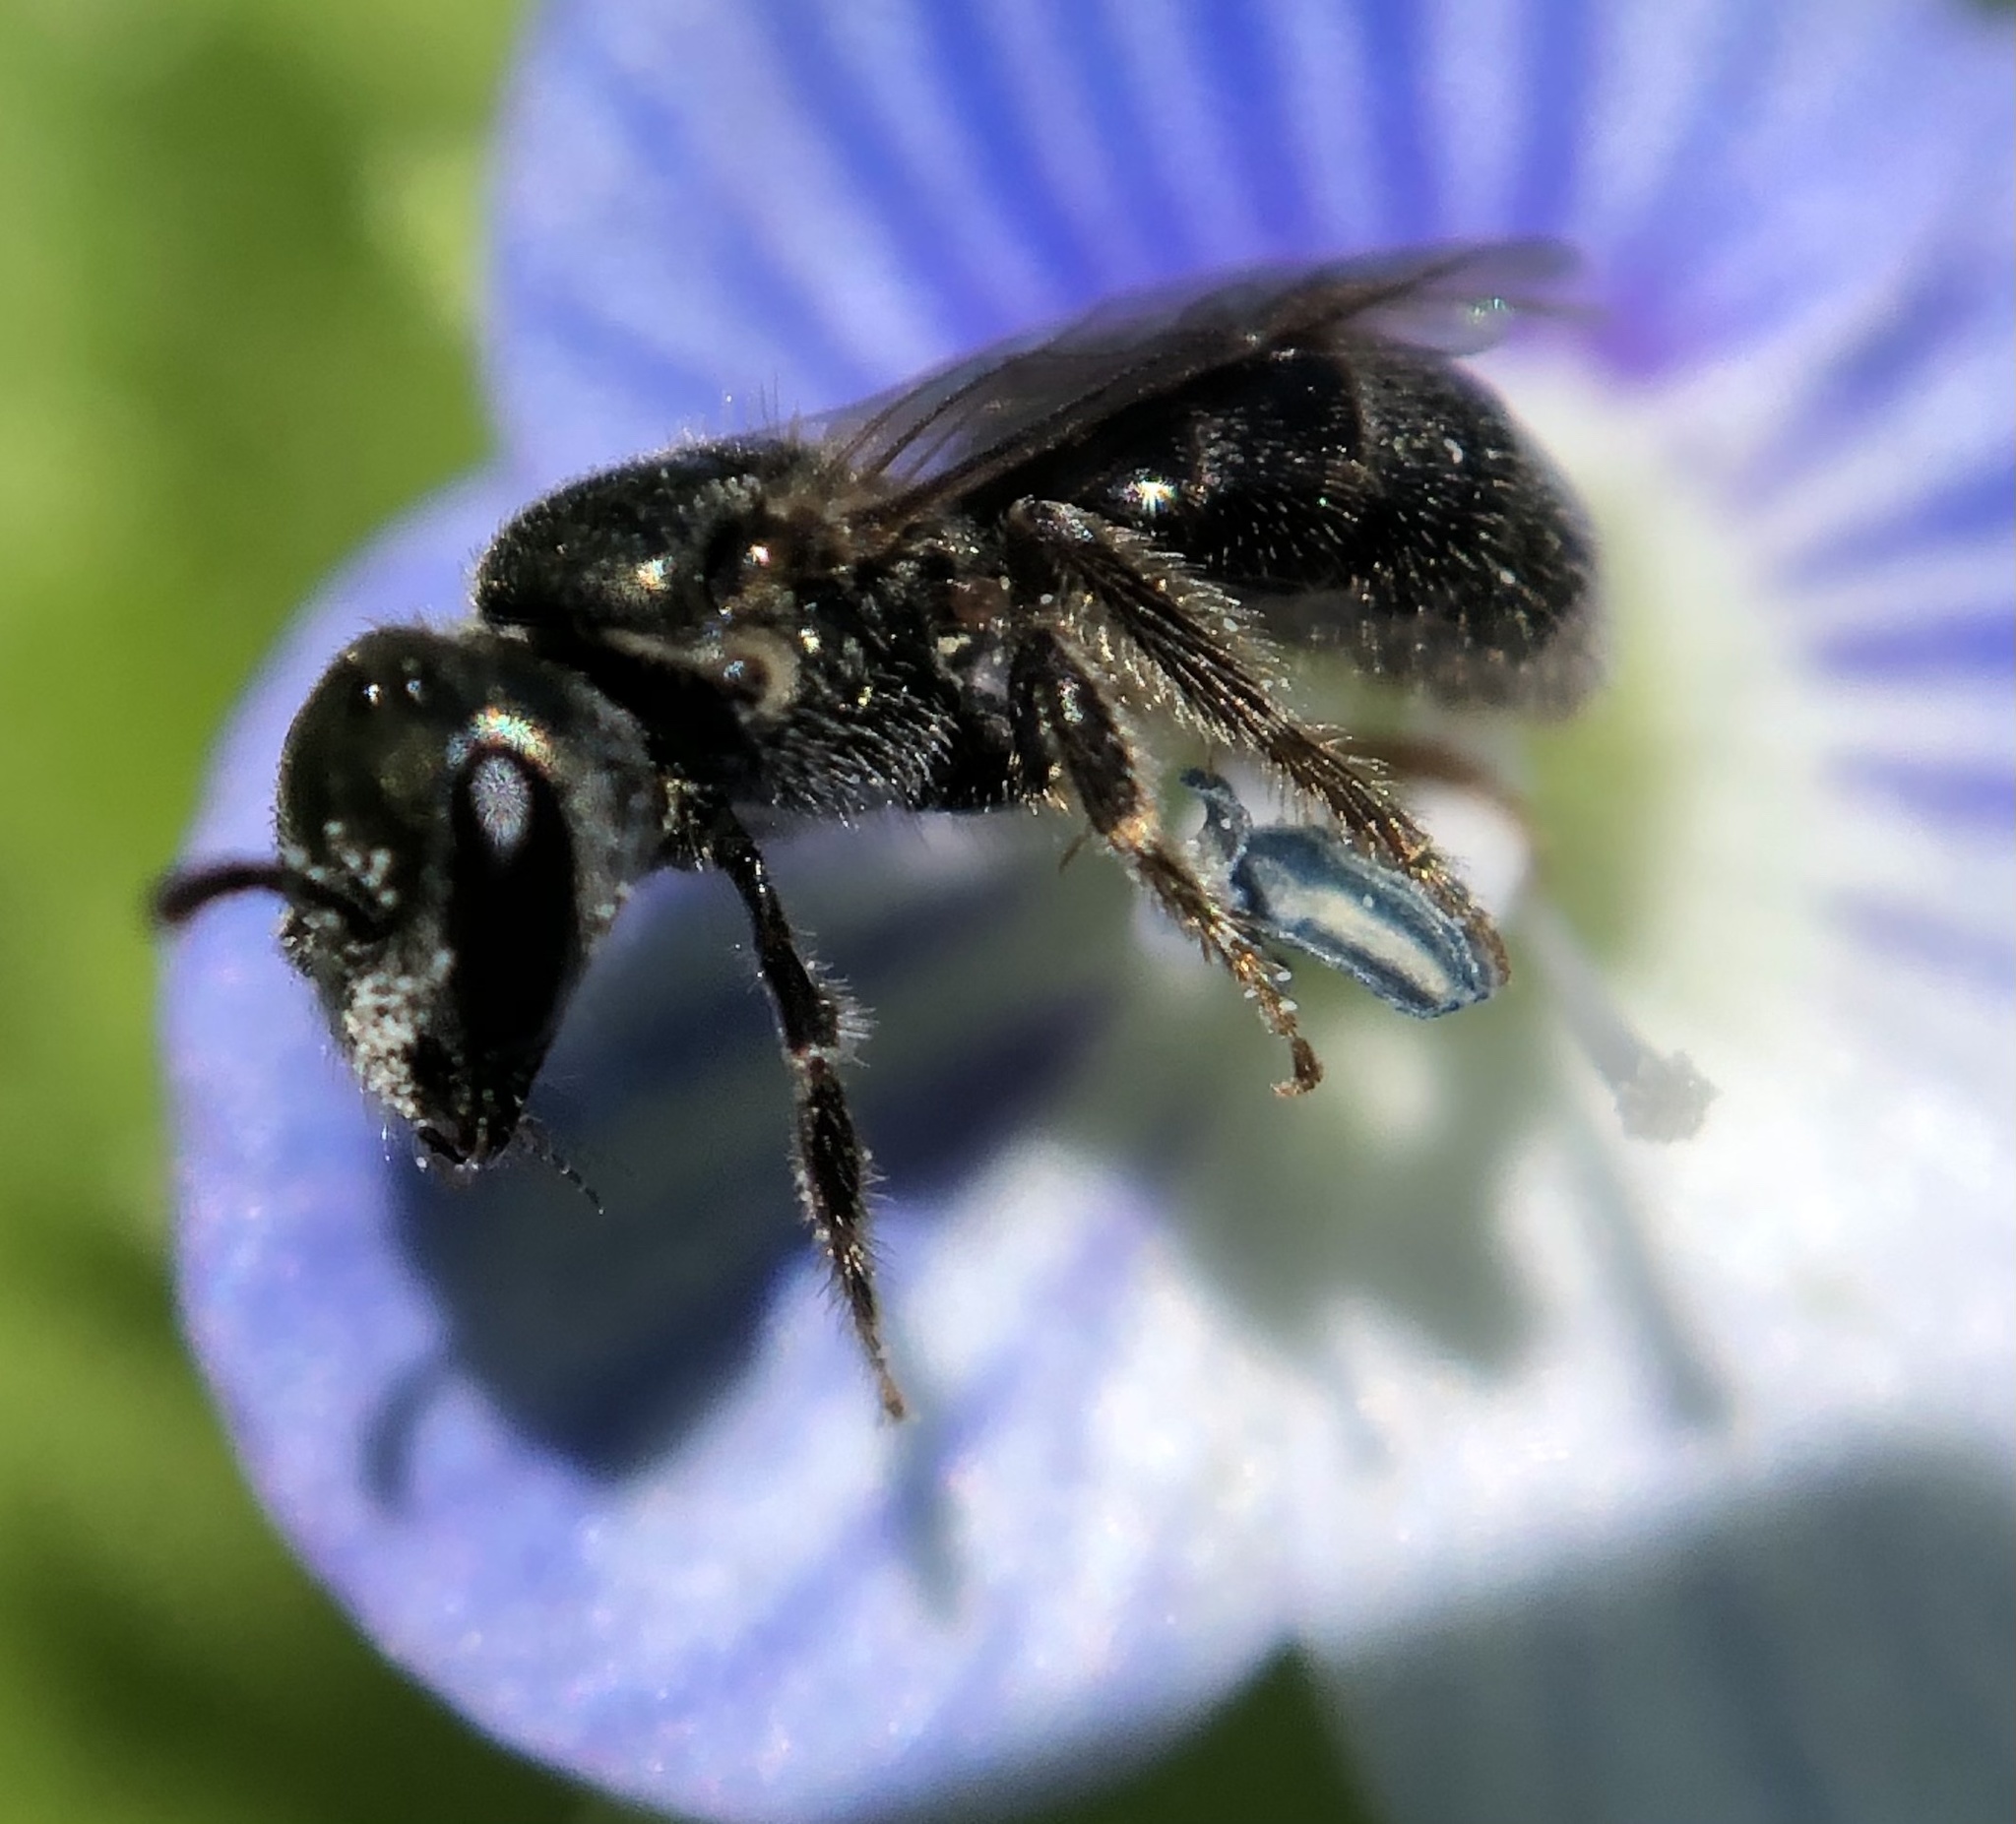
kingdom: Animalia
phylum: Arthropoda
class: Insecta
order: Hymenoptera
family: Halictidae
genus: Lasioglossum
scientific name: Lasioglossum imitatum
